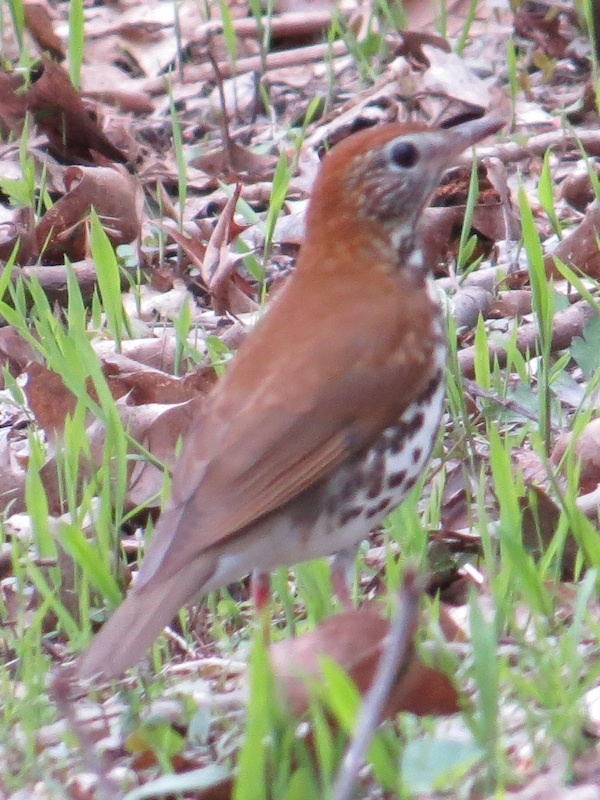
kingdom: Animalia
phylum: Chordata
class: Aves
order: Passeriformes
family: Turdidae
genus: Hylocichla
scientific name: Hylocichla mustelina
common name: Wood thrush
